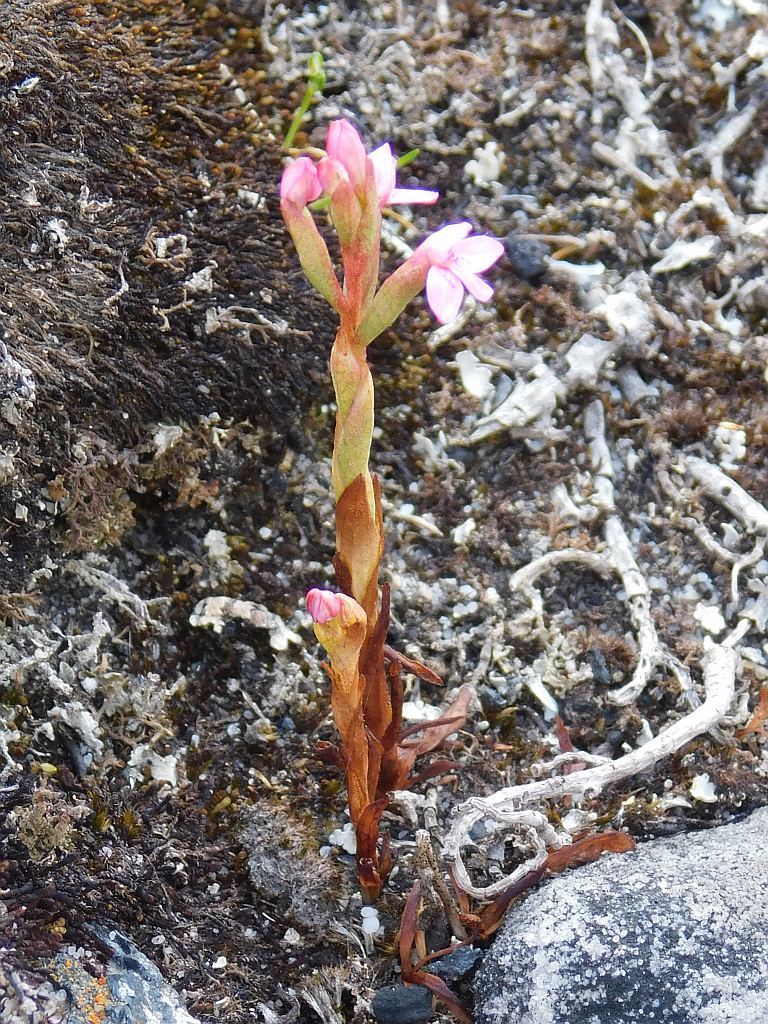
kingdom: Plantae
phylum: Tracheophyta
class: Liliopsida
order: Asparagales
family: Orchidaceae
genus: Disa
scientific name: Disa vaginata
